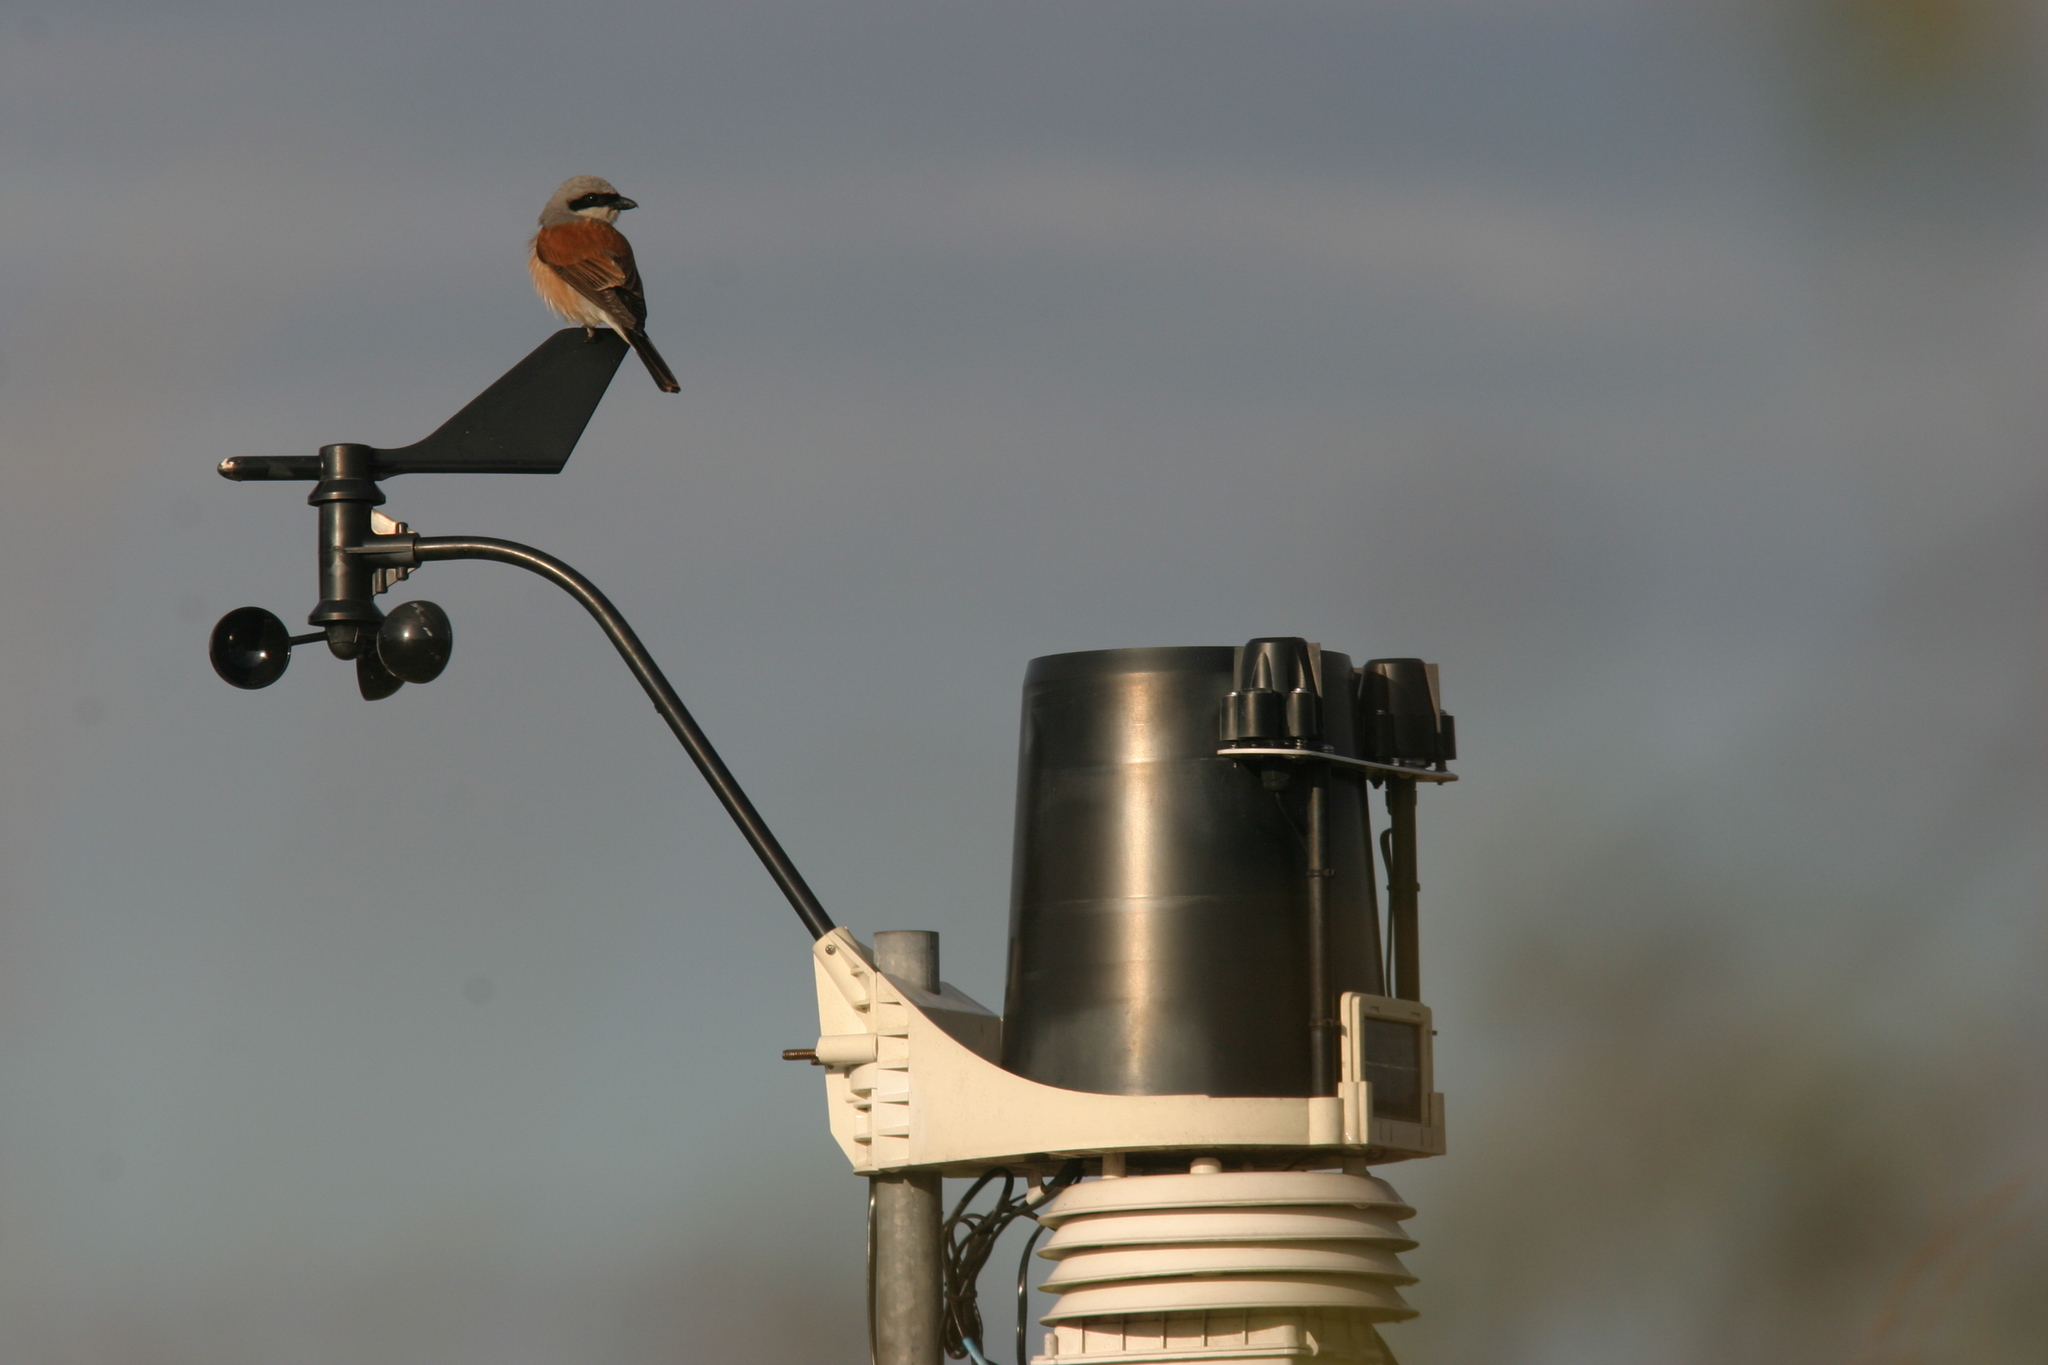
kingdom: Animalia
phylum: Chordata
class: Aves
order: Passeriformes
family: Laniidae
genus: Lanius
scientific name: Lanius collurio
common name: Red-backed shrike
